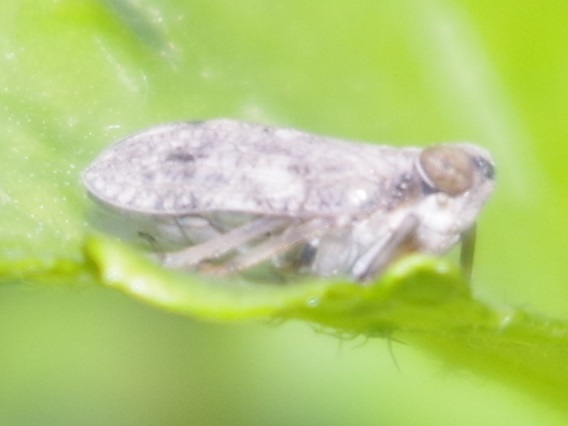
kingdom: Animalia
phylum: Arthropoda
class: Insecta
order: Hemiptera
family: Issidae
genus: Issus
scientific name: Issus coleoptratus
